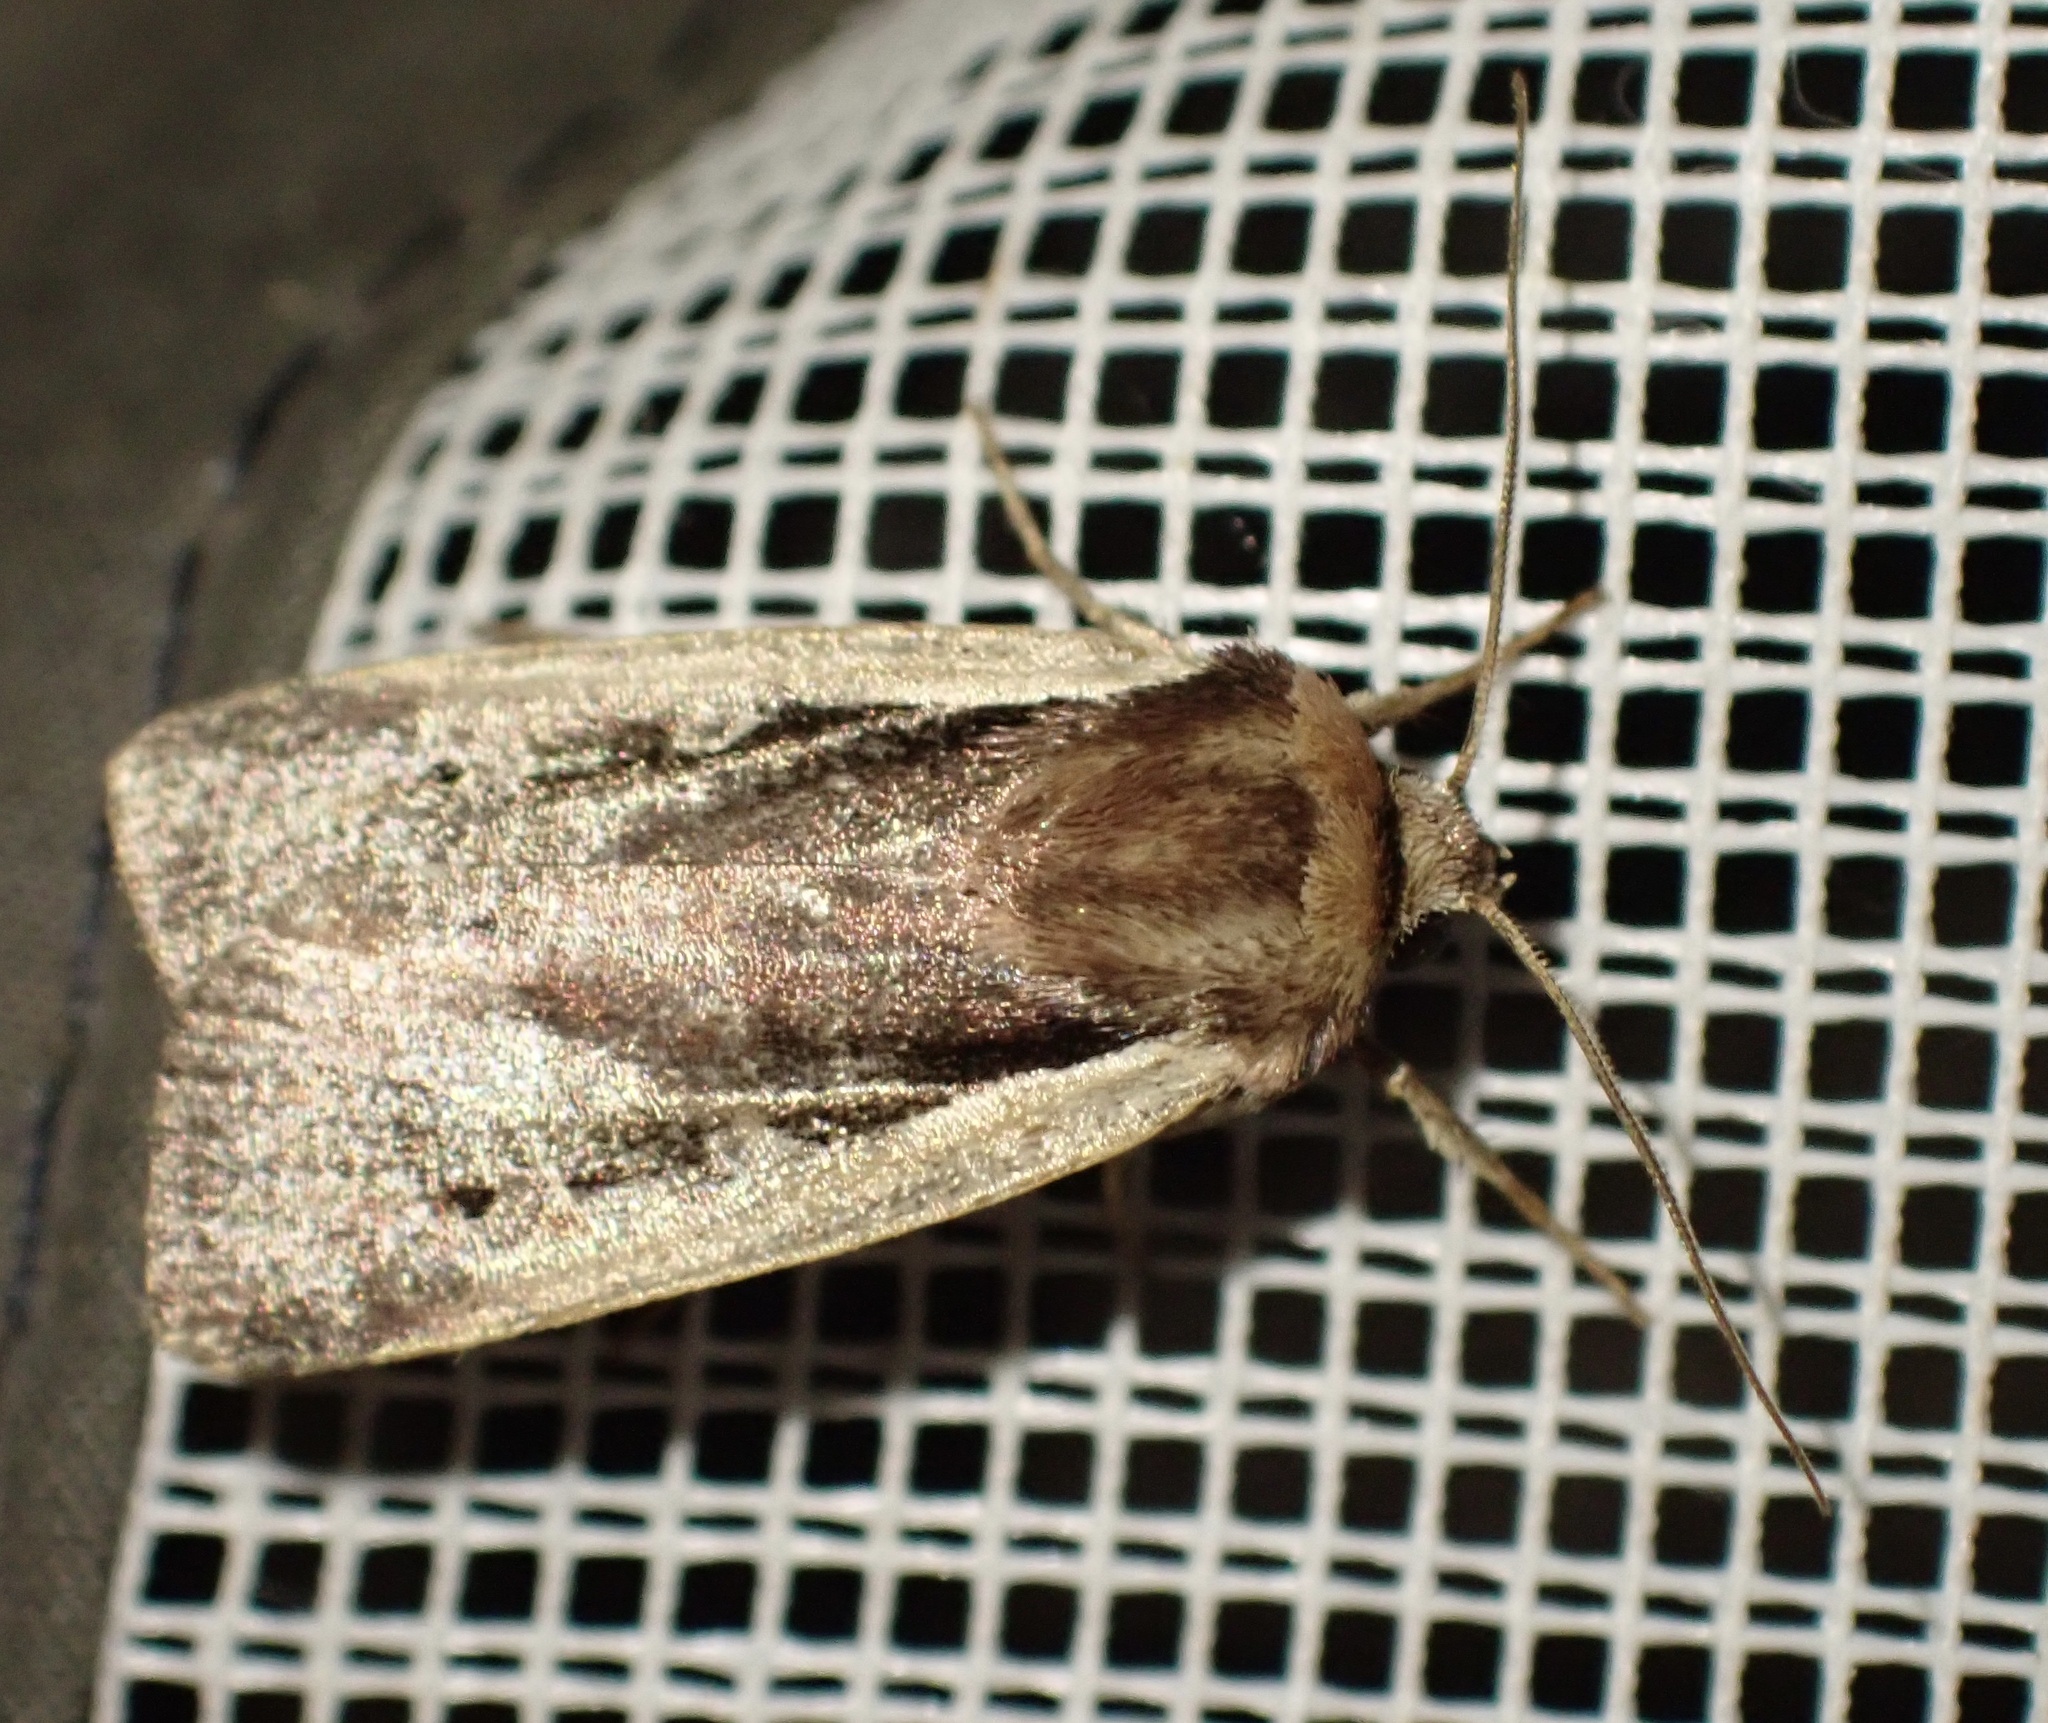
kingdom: Animalia
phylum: Arthropoda
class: Insecta
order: Lepidoptera
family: Noctuidae
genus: Ochropleura
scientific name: Ochropleura plecta
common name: Flame shoulder
